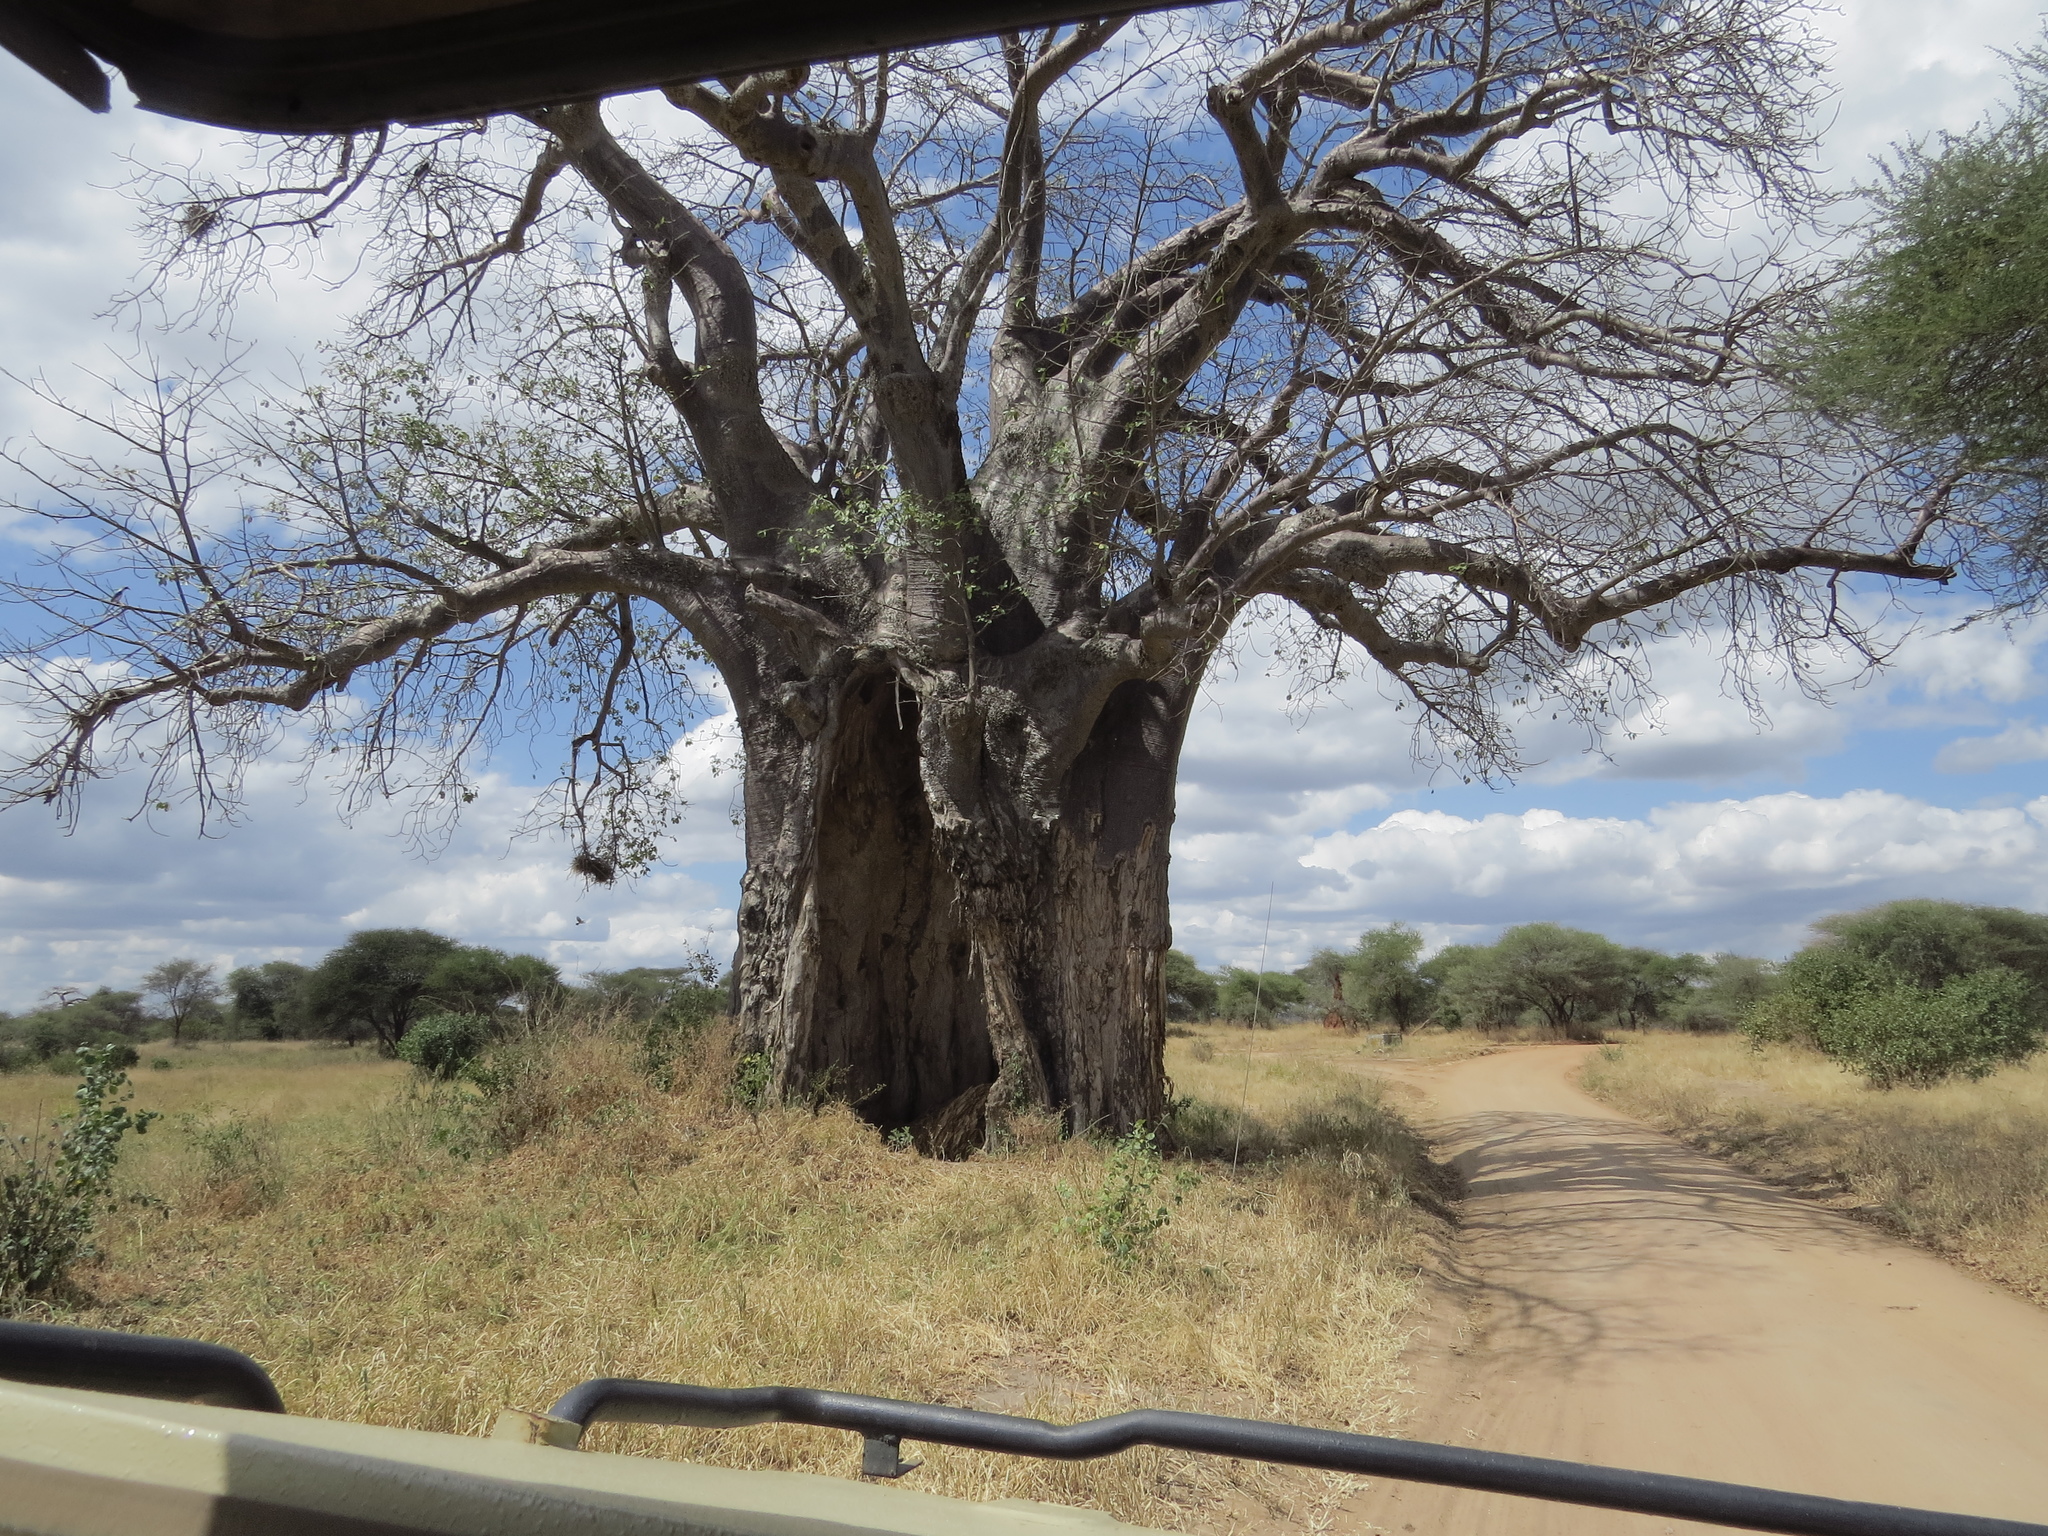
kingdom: Plantae
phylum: Tracheophyta
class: Magnoliopsida
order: Malvales
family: Malvaceae
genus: Adansonia
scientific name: Adansonia digitata
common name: Dead-rat-tree
